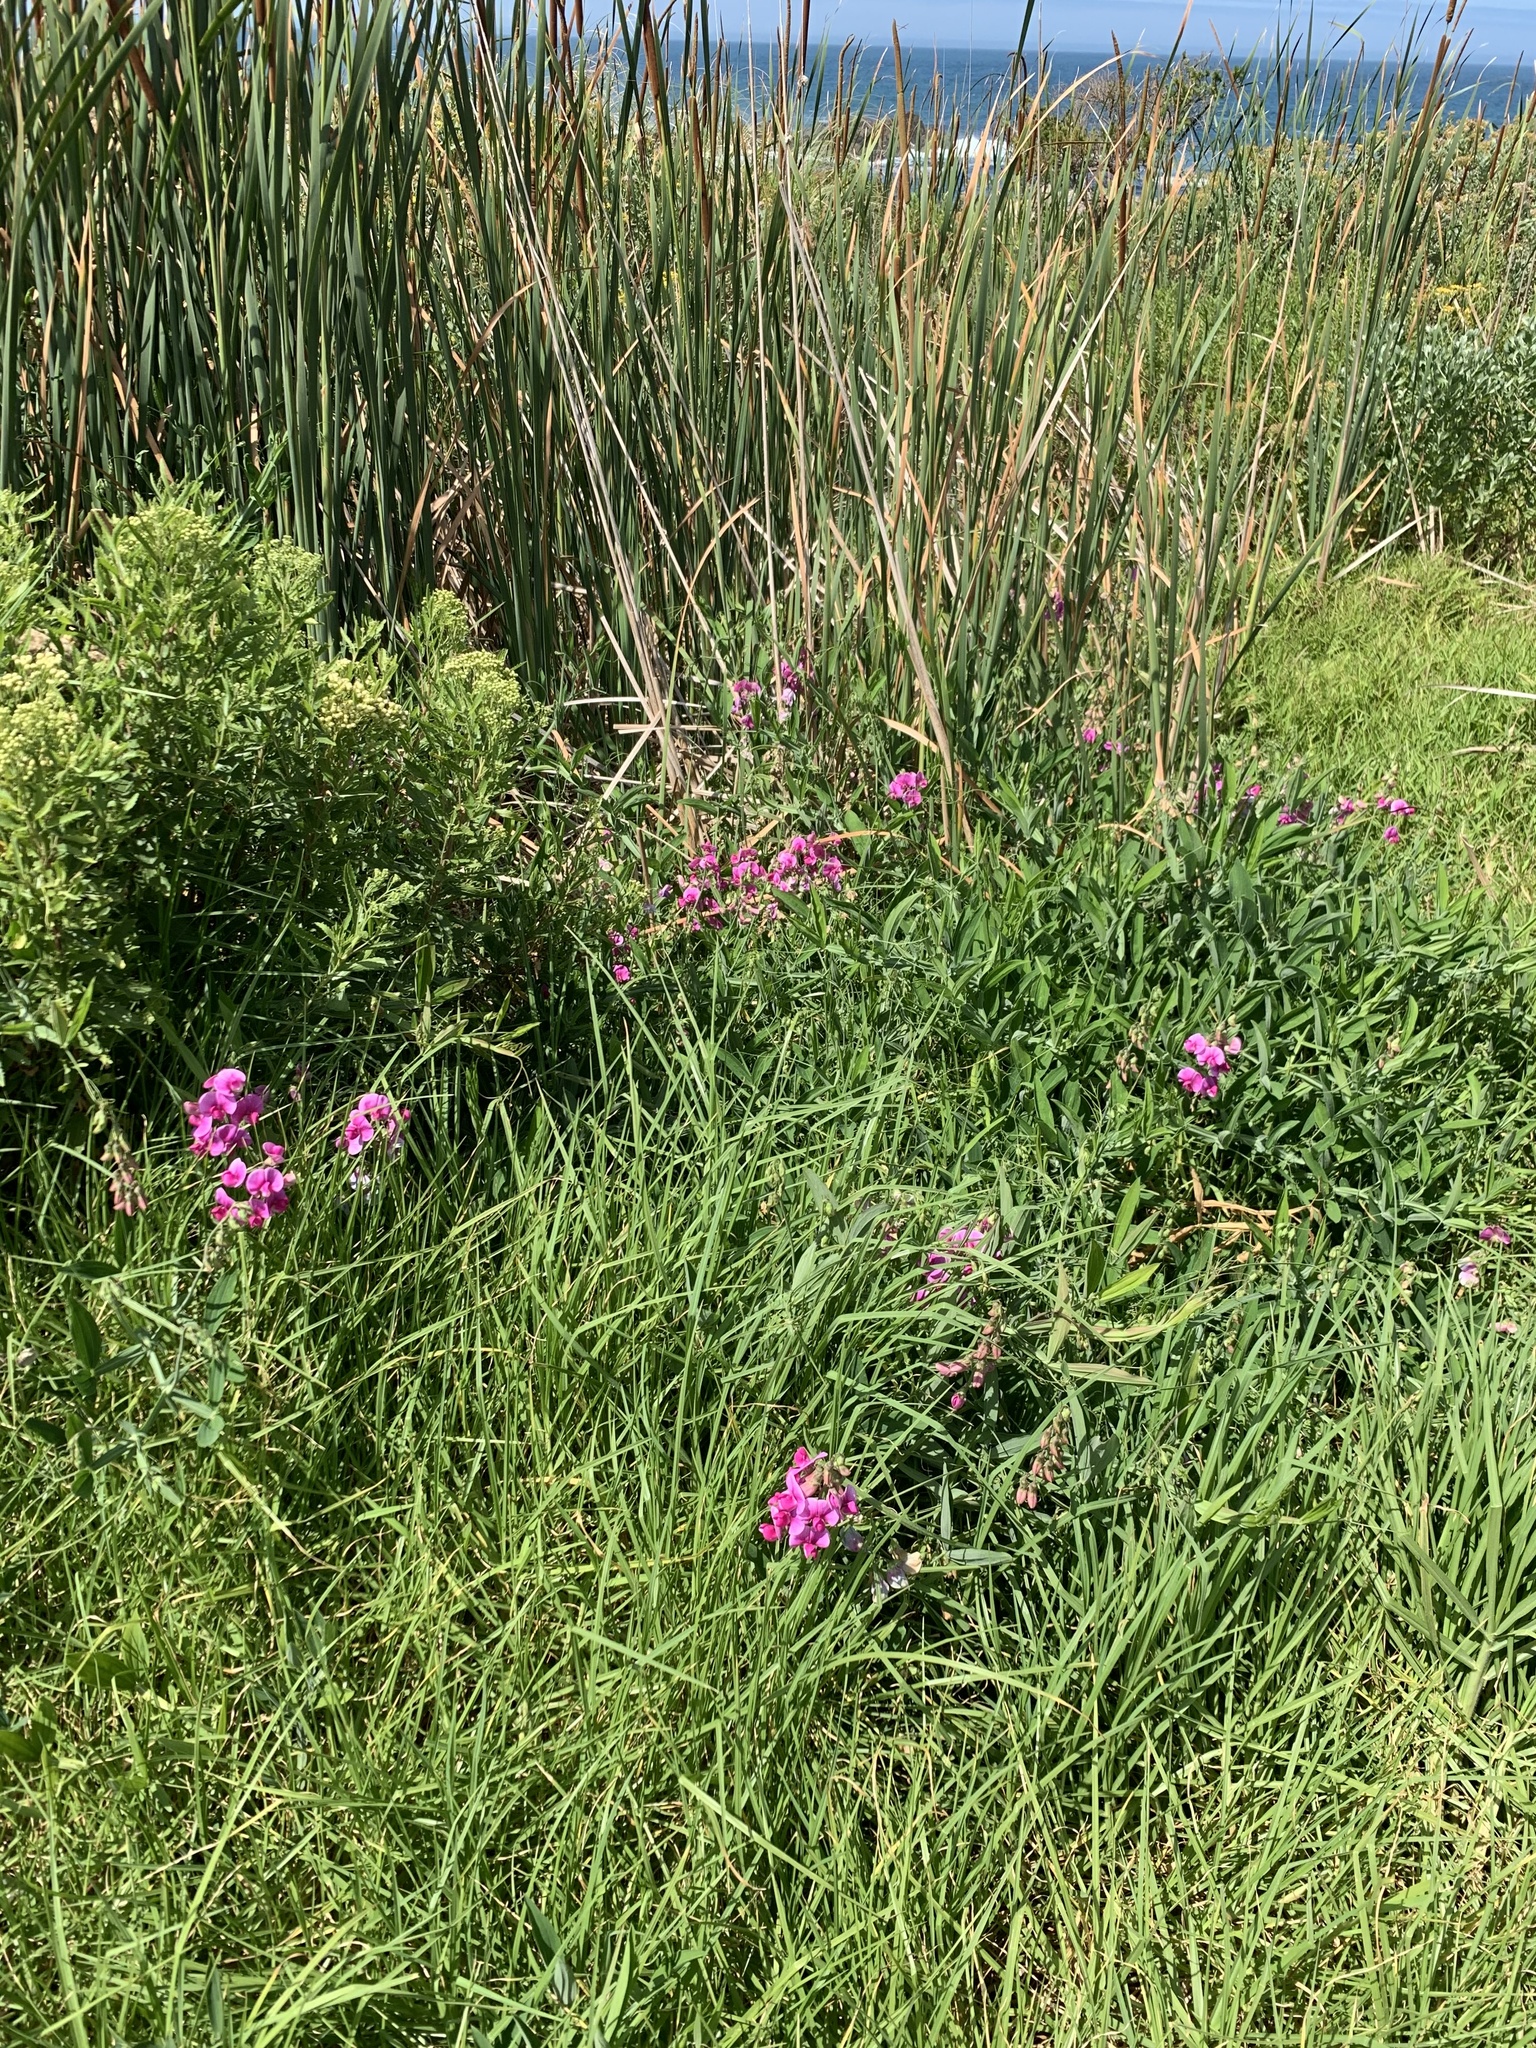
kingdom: Plantae
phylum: Tracheophyta
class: Magnoliopsida
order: Fabales
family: Fabaceae
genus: Lathyrus
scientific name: Lathyrus latifolius
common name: Perennial pea
